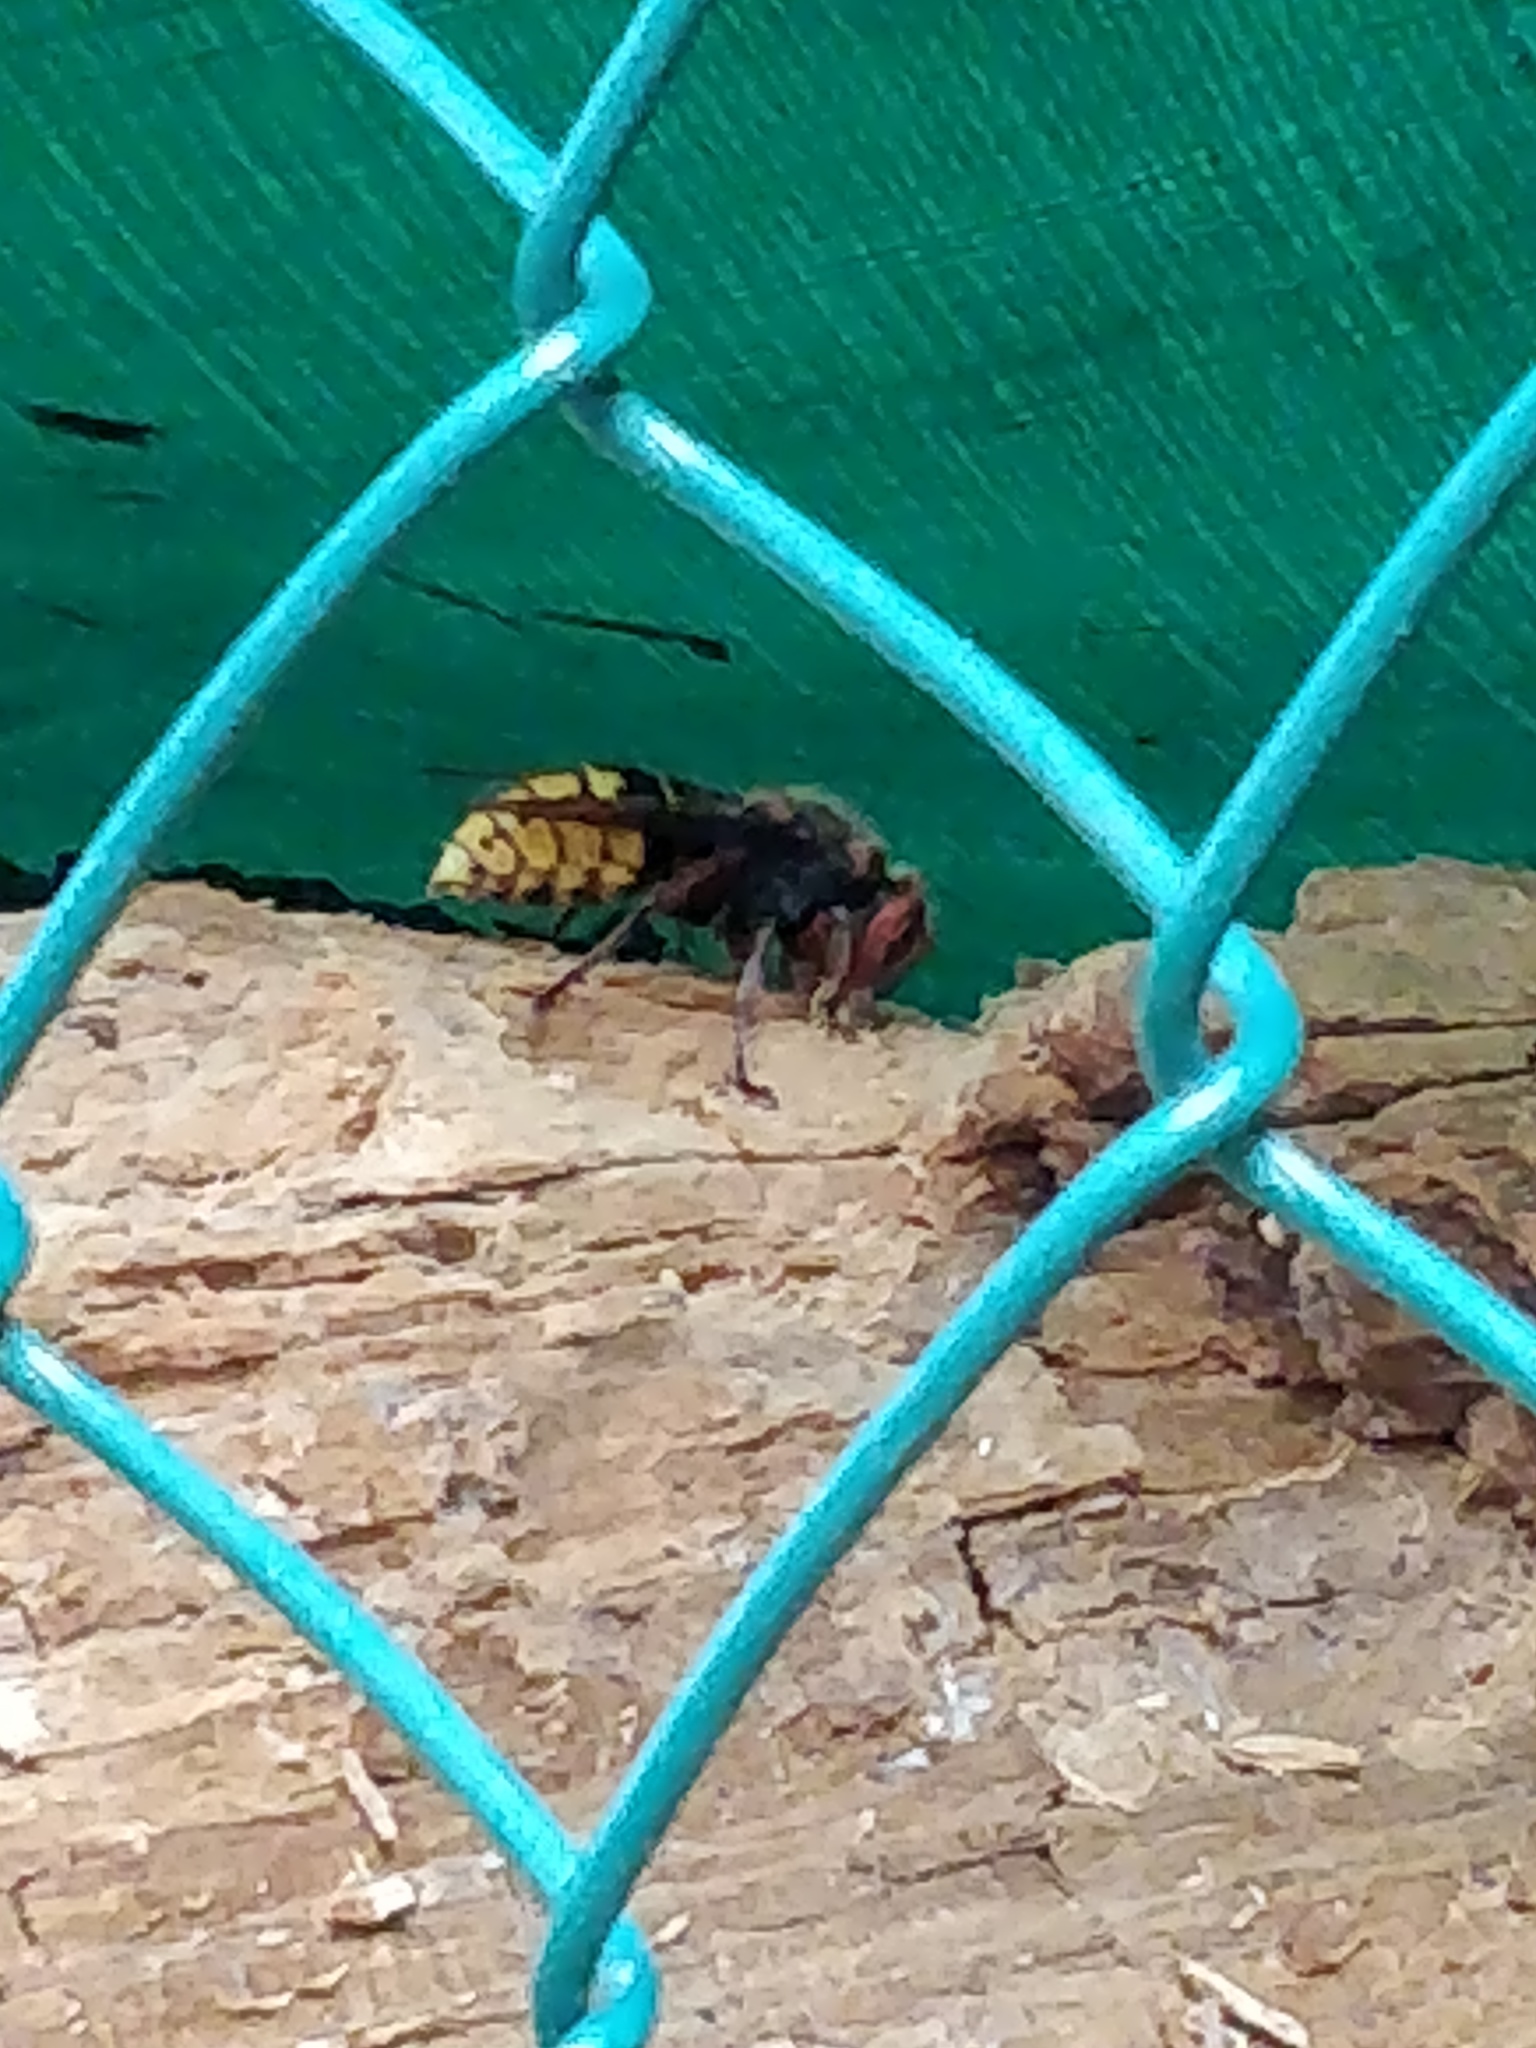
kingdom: Animalia
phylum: Arthropoda
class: Insecta
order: Hymenoptera
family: Vespidae
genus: Vespa
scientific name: Vespa crabro
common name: Hornet
